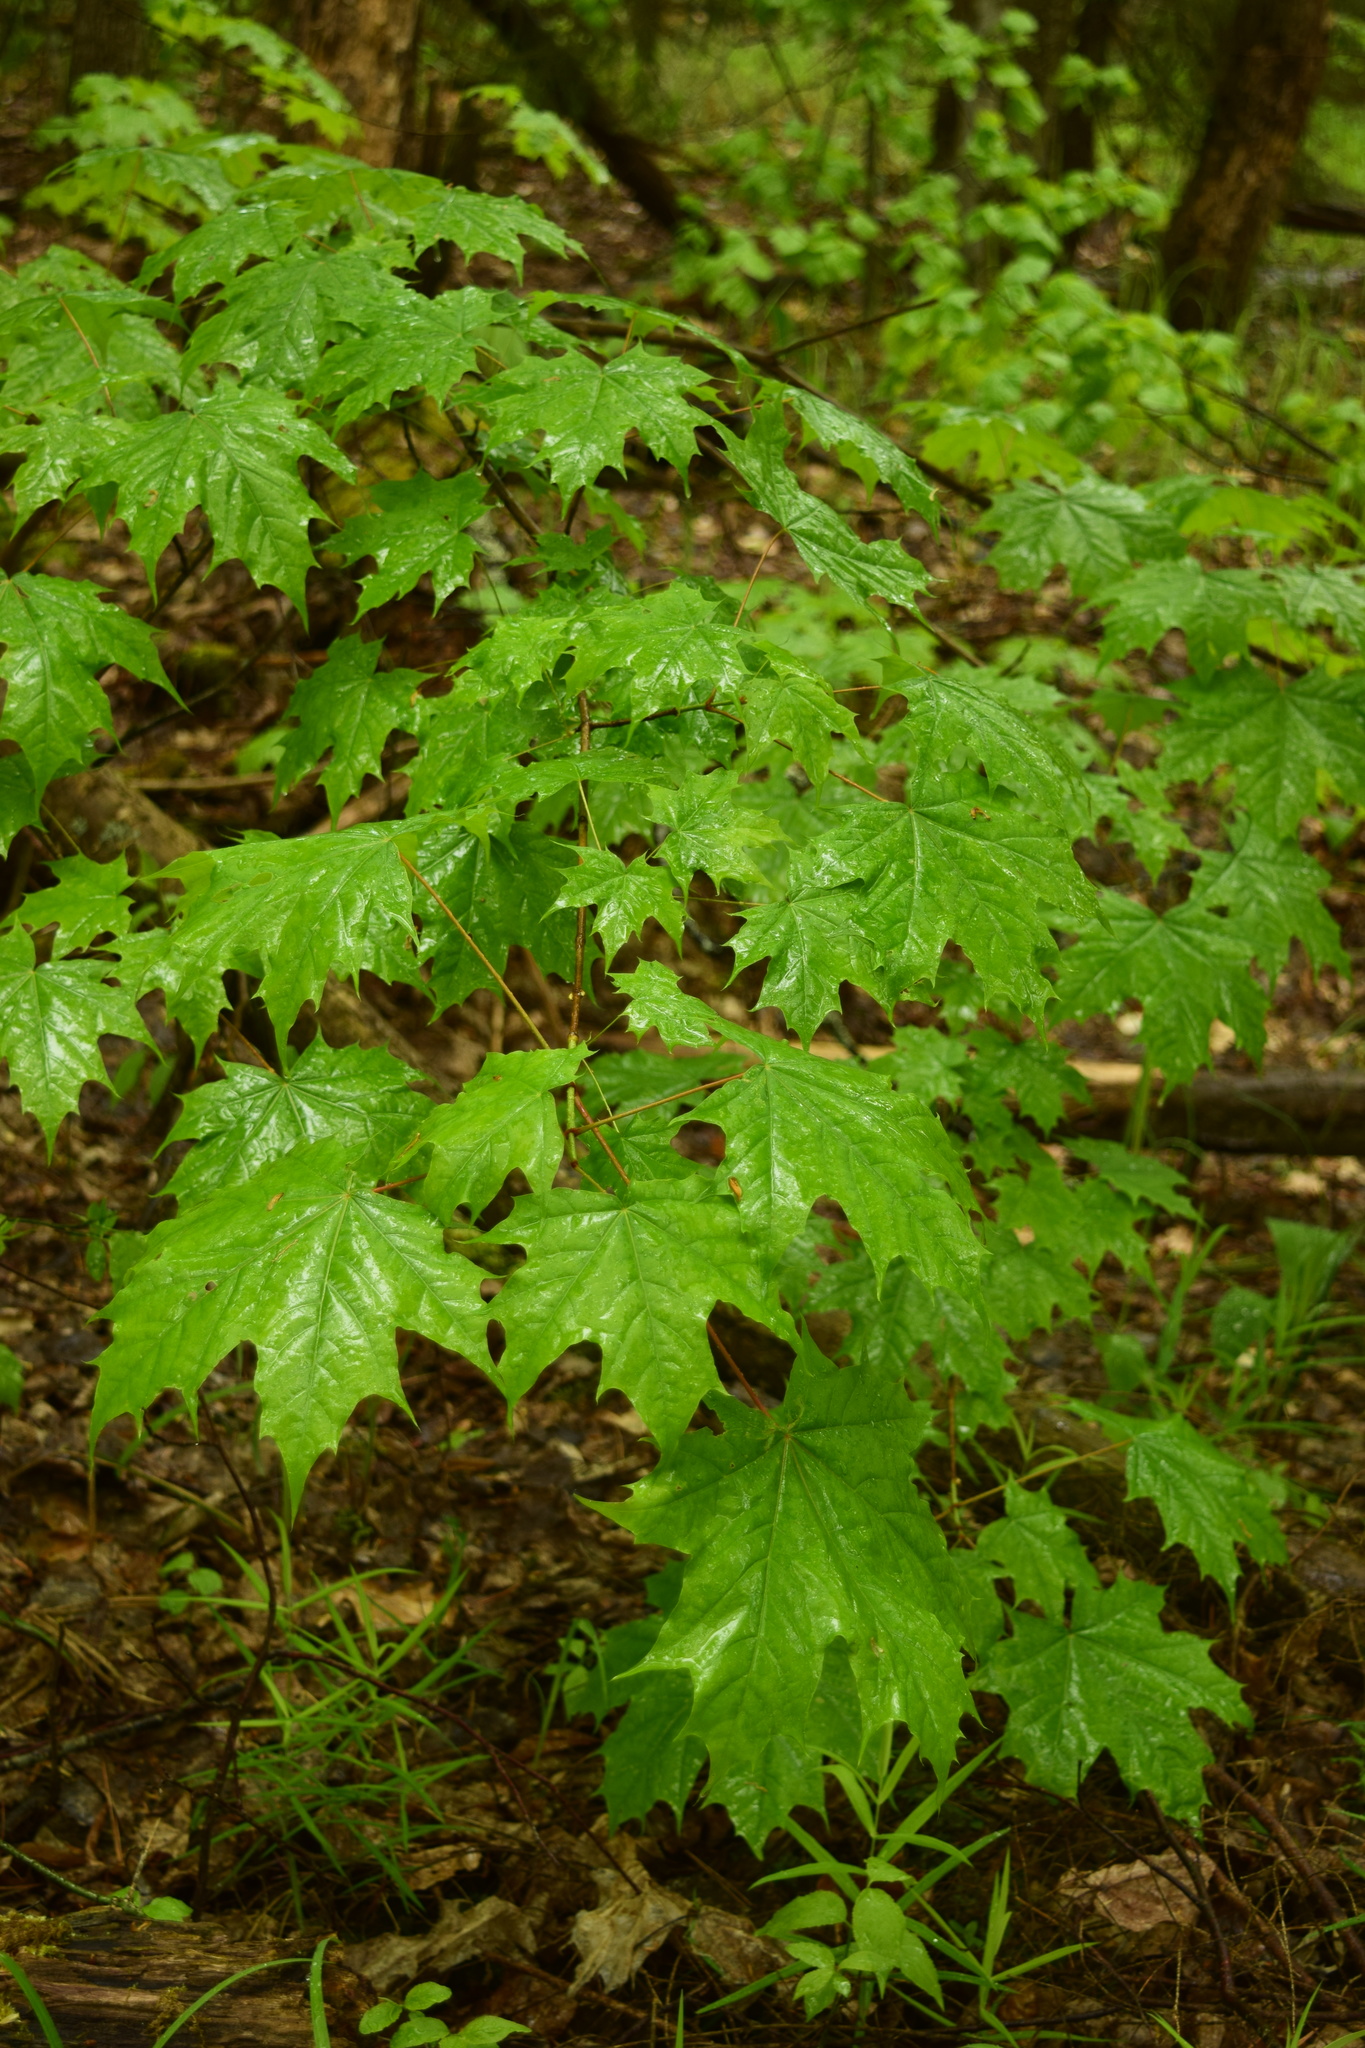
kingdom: Plantae
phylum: Tracheophyta
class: Magnoliopsida
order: Sapindales
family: Sapindaceae
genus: Acer
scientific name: Acer platanoides
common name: Norway maple
